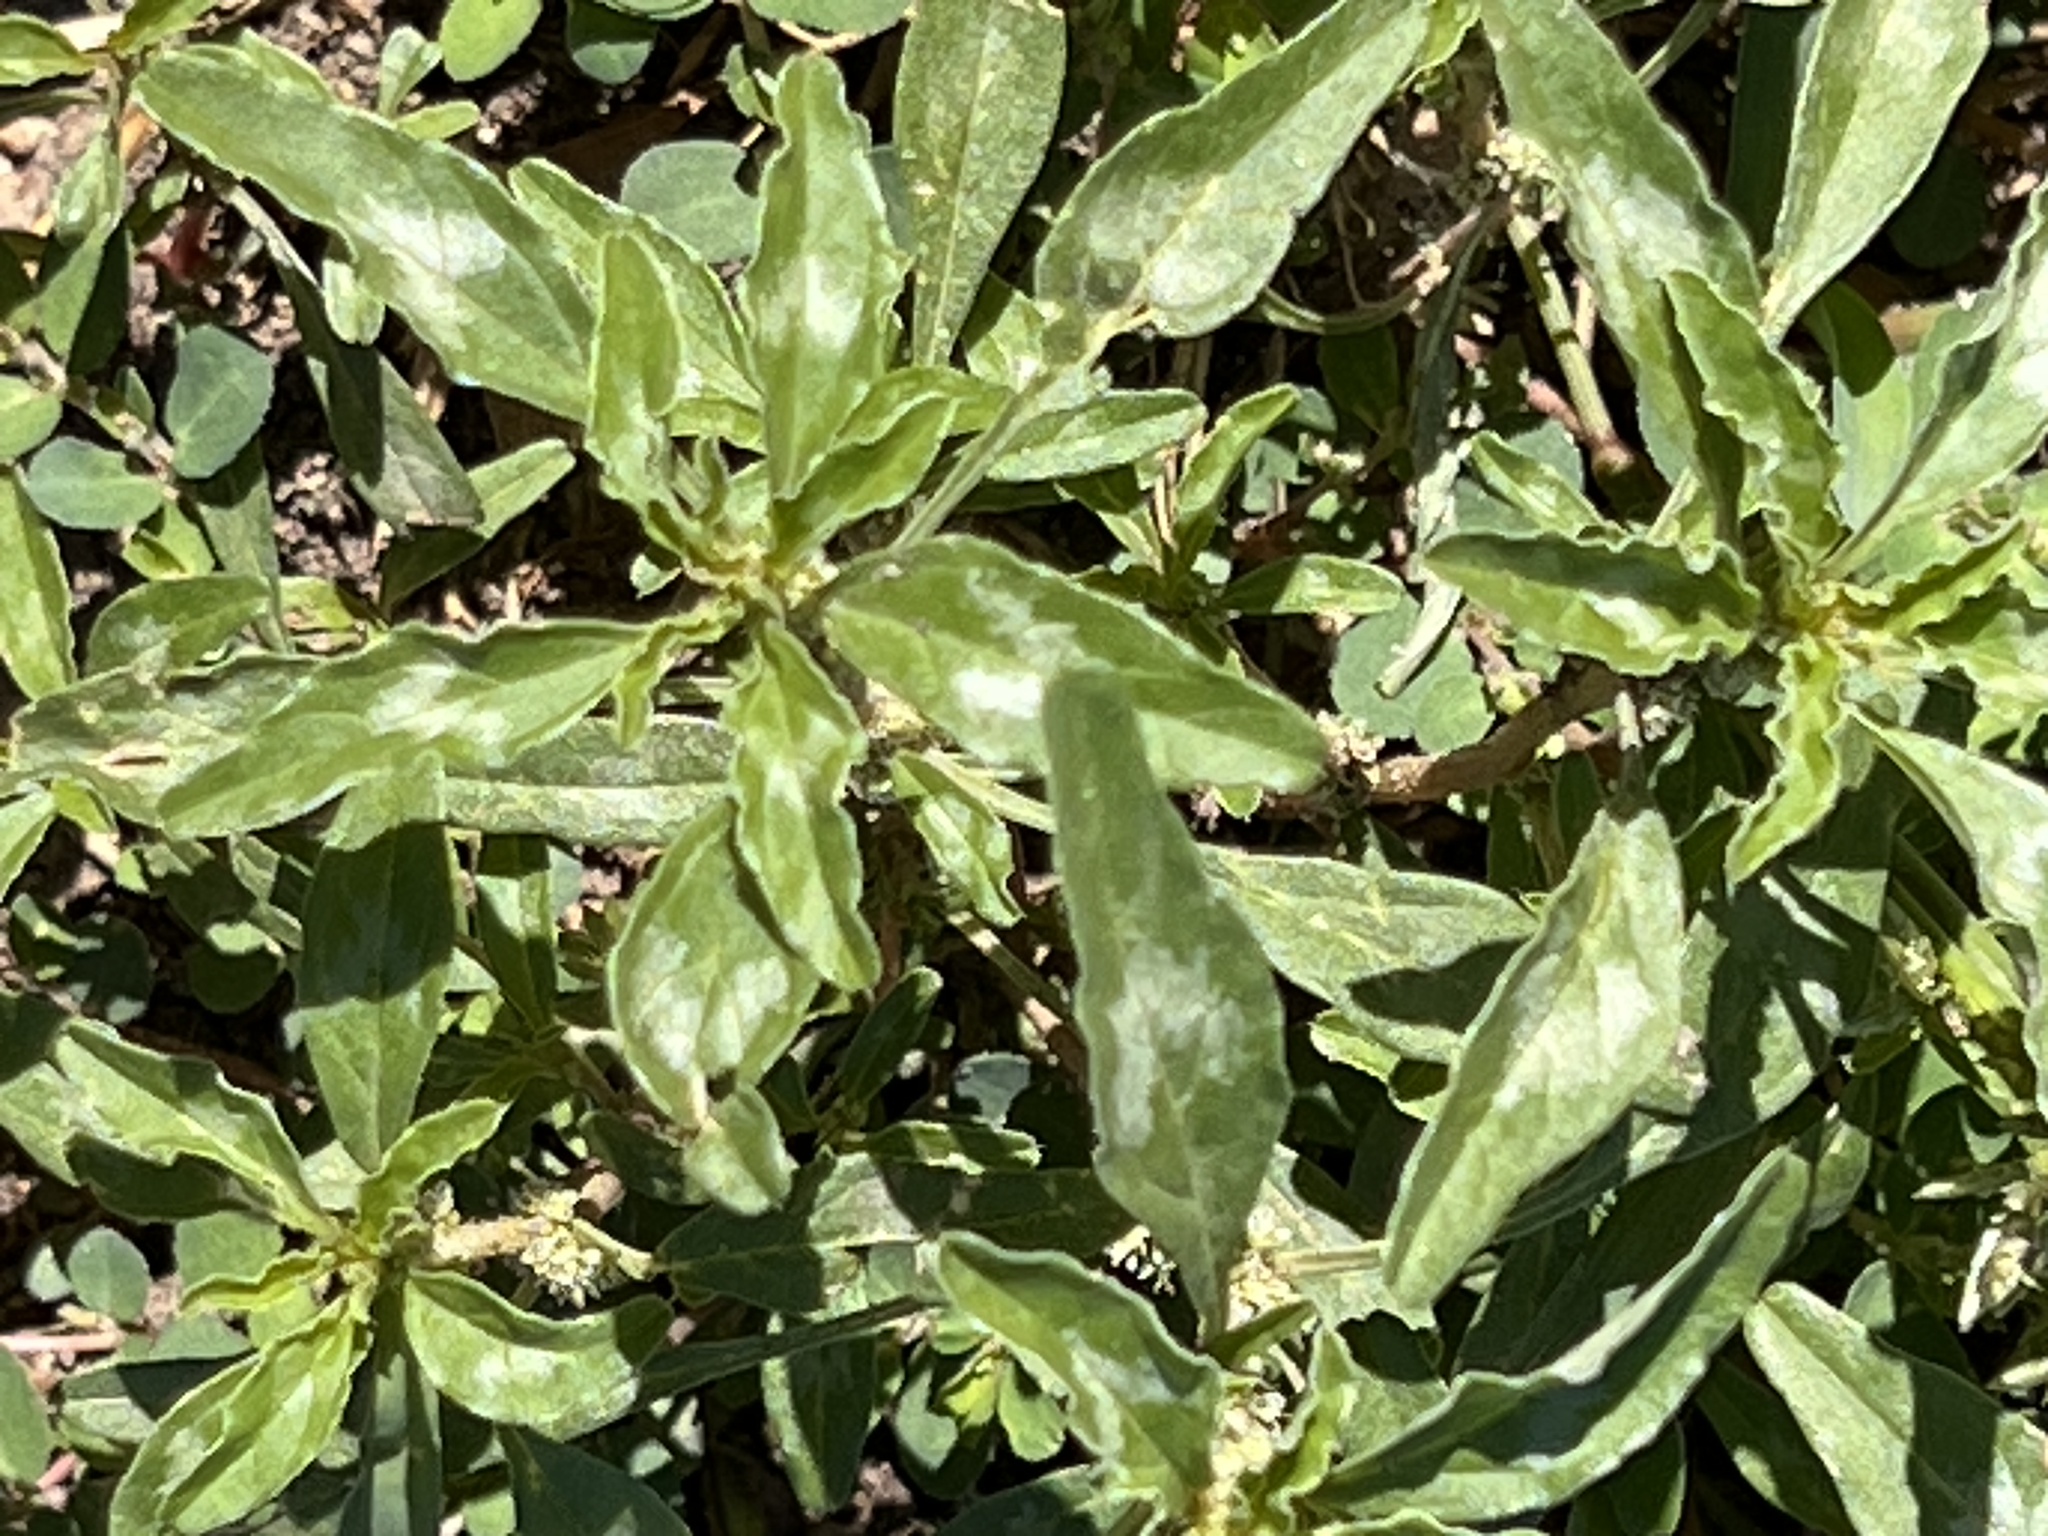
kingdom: Plantae
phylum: Tracheophyta
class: Magnoliopsida
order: Caryophyllales
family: Amaranthaceae
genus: Amaranthus
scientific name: Amaranthus polygonoides
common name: Tropical amaranth
